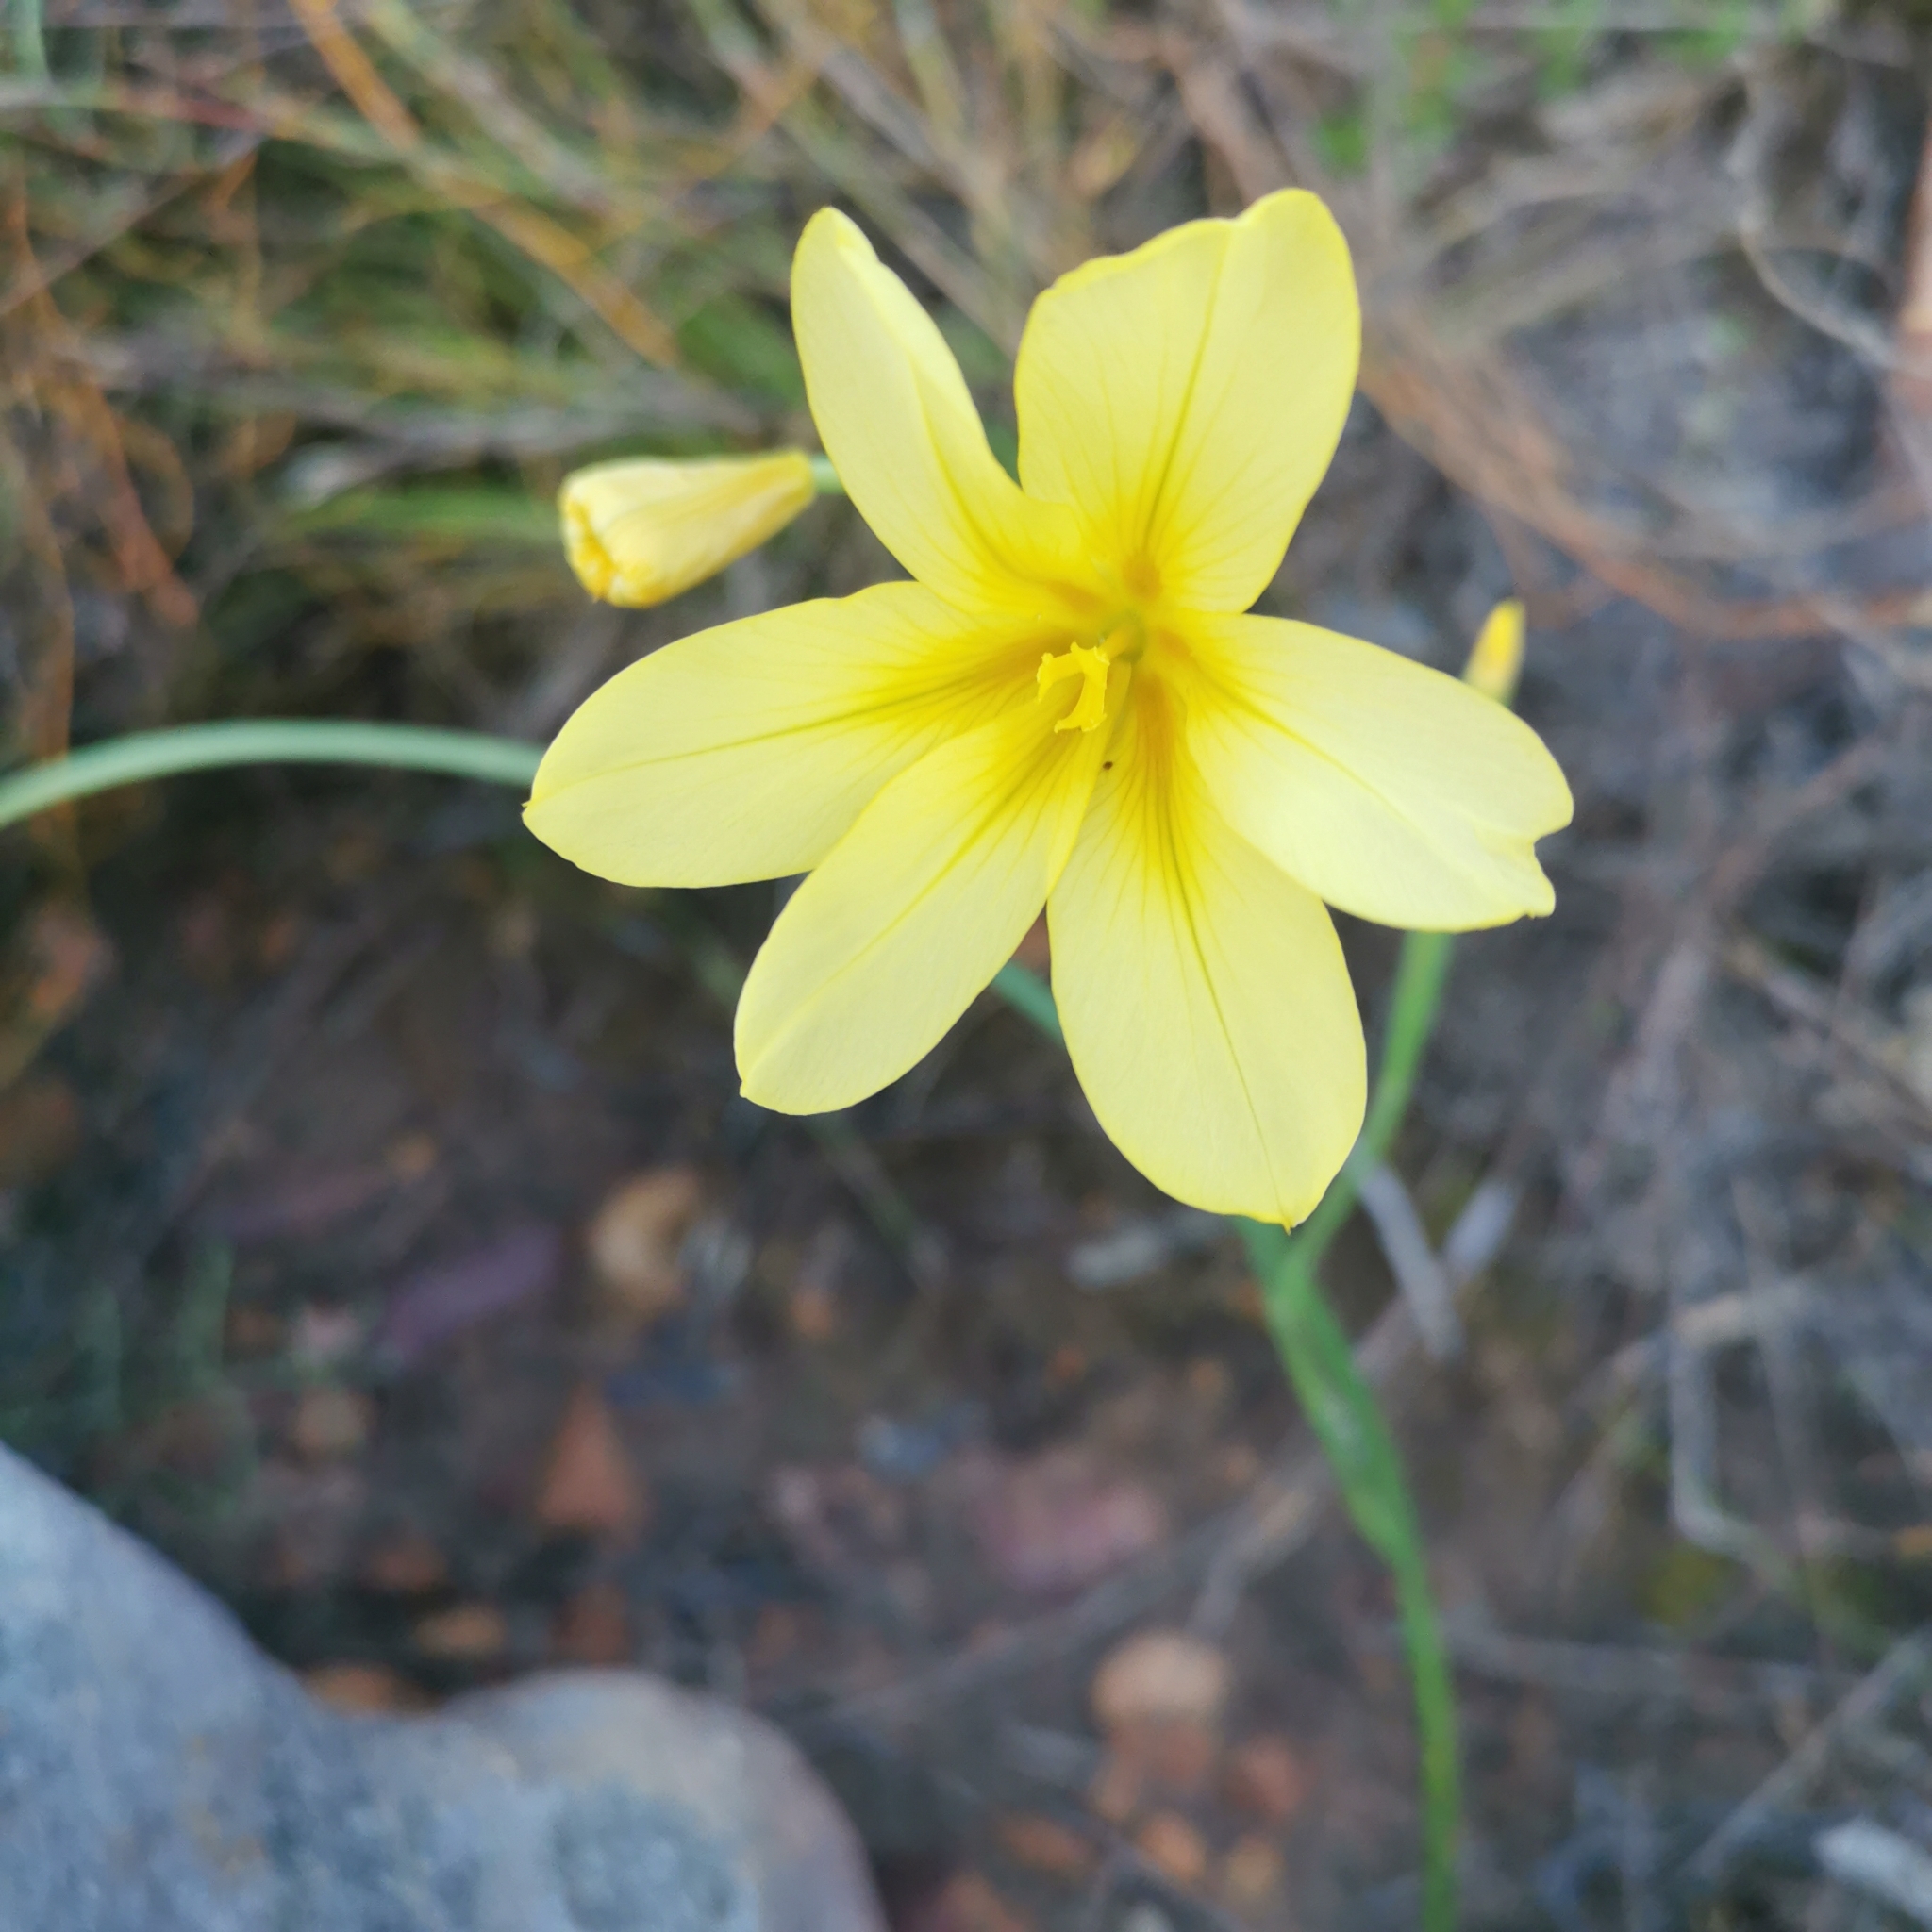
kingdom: Plantae
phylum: Tracheophyta
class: Liliopsida
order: Asparagales
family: Iridaceae
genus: Moraea
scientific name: Moraea collina
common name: Cape-tulip
